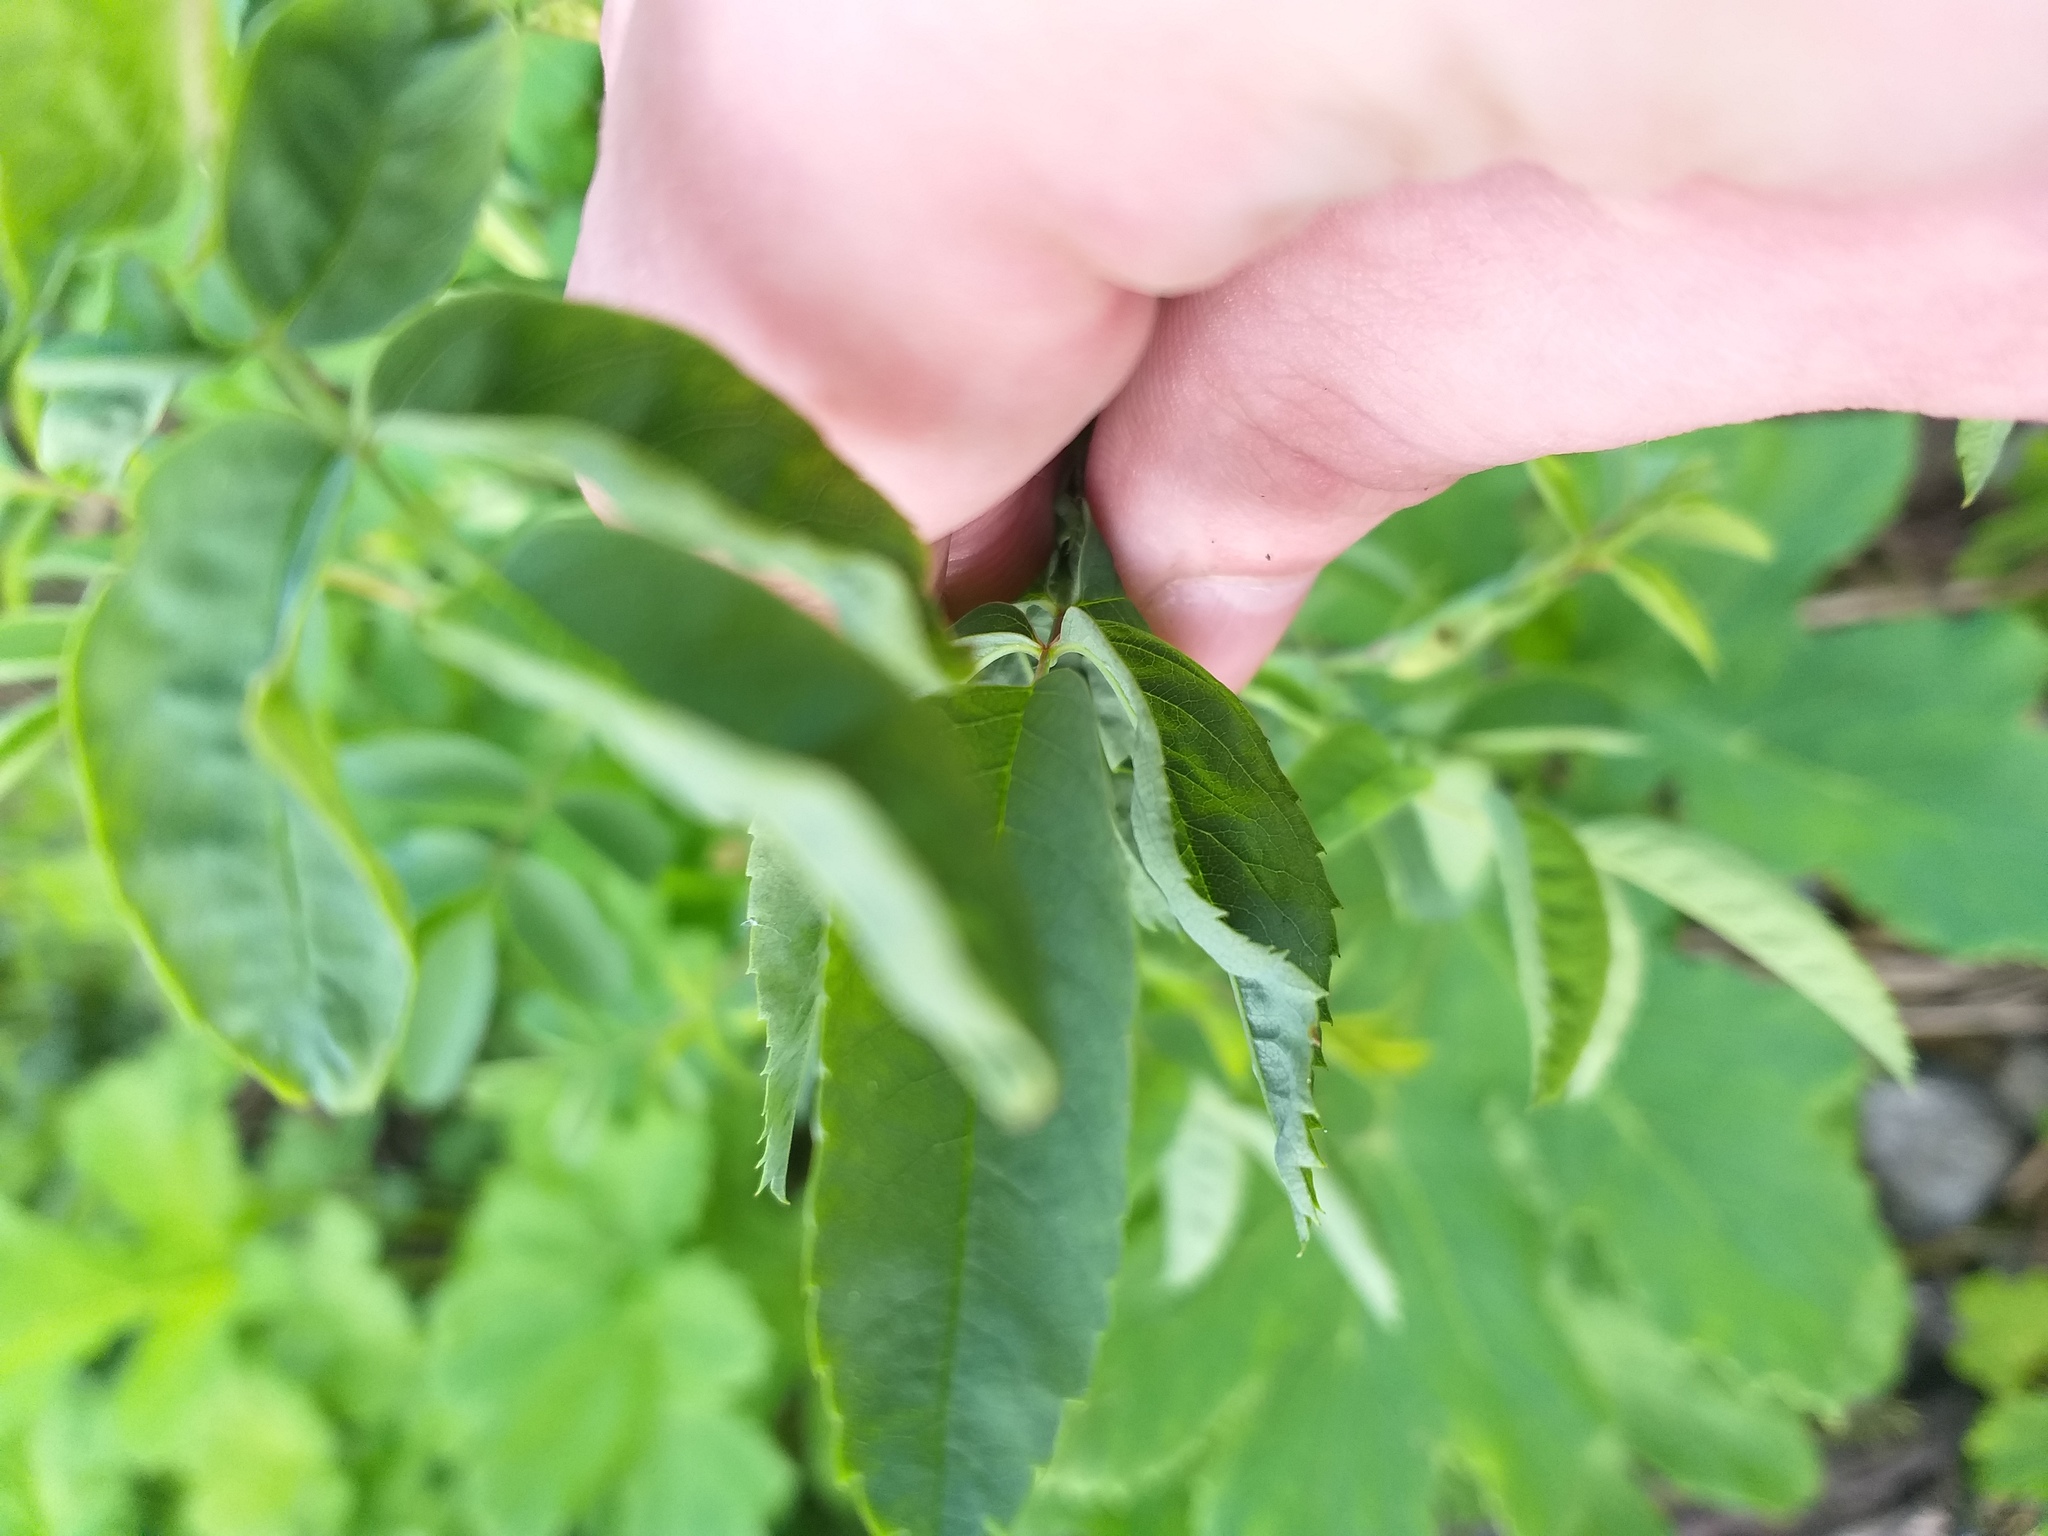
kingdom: Plantae
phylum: Tracheophyta
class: Magnoliopsida
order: Rosales
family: Rosaceae
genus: Rosa
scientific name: Rosa glabrifolia
